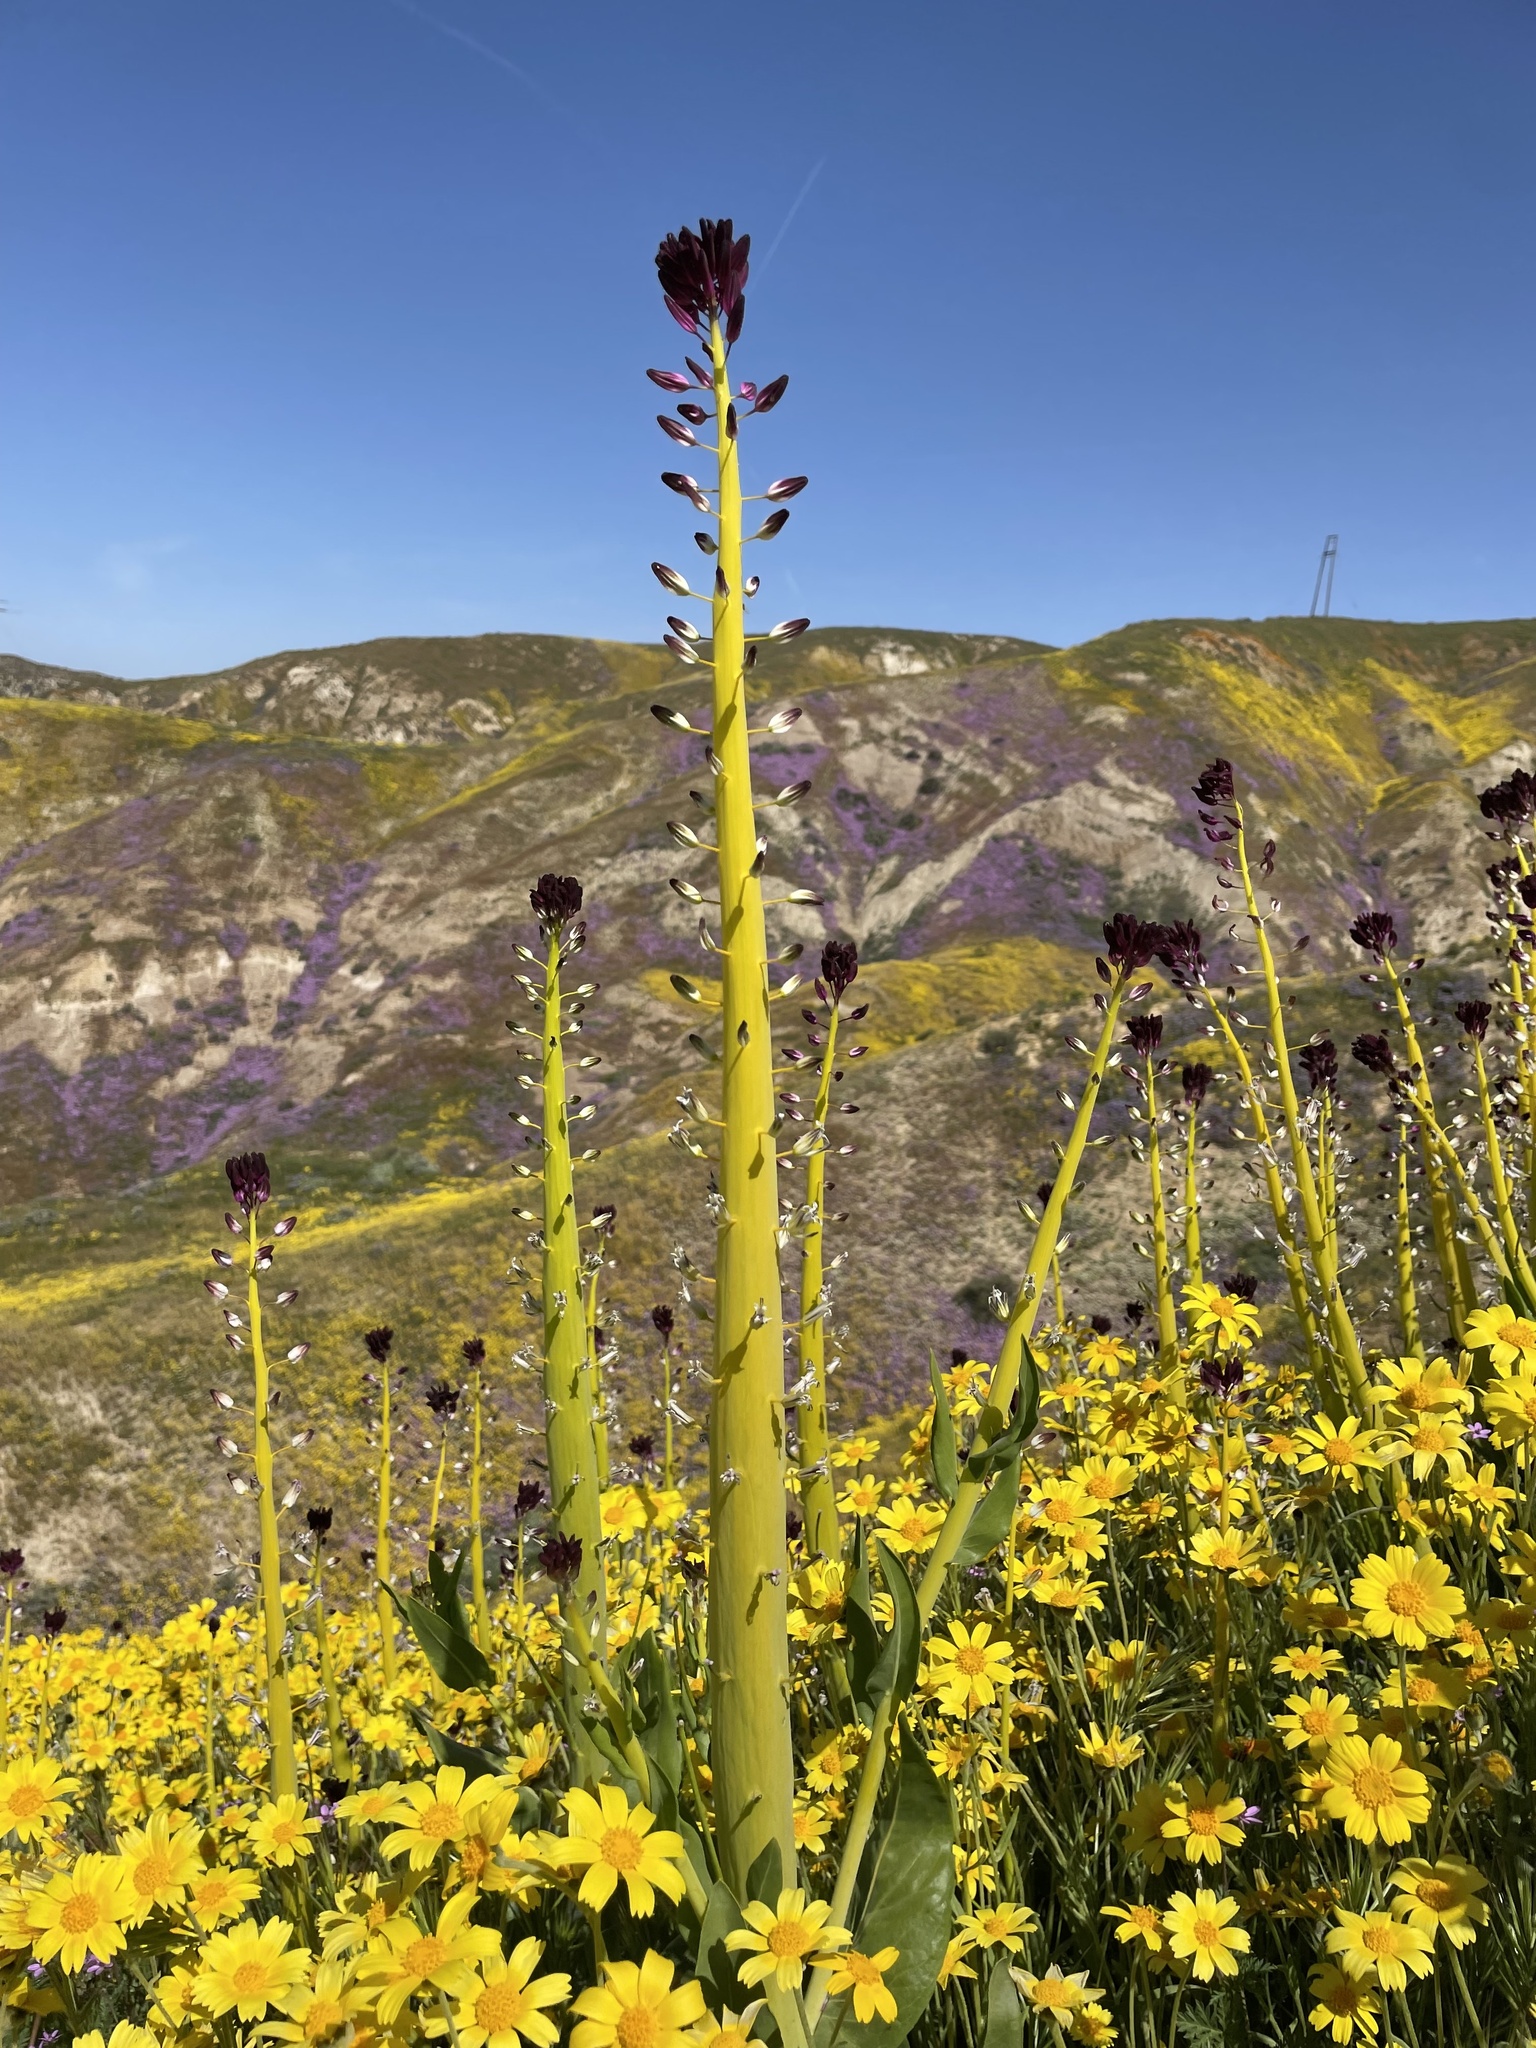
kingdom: Plantae
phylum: Tracheophyta
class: Magnoliopsida
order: Brassicales
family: Brassicaceae
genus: Streptanthus
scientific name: Streptanthus inflatus
